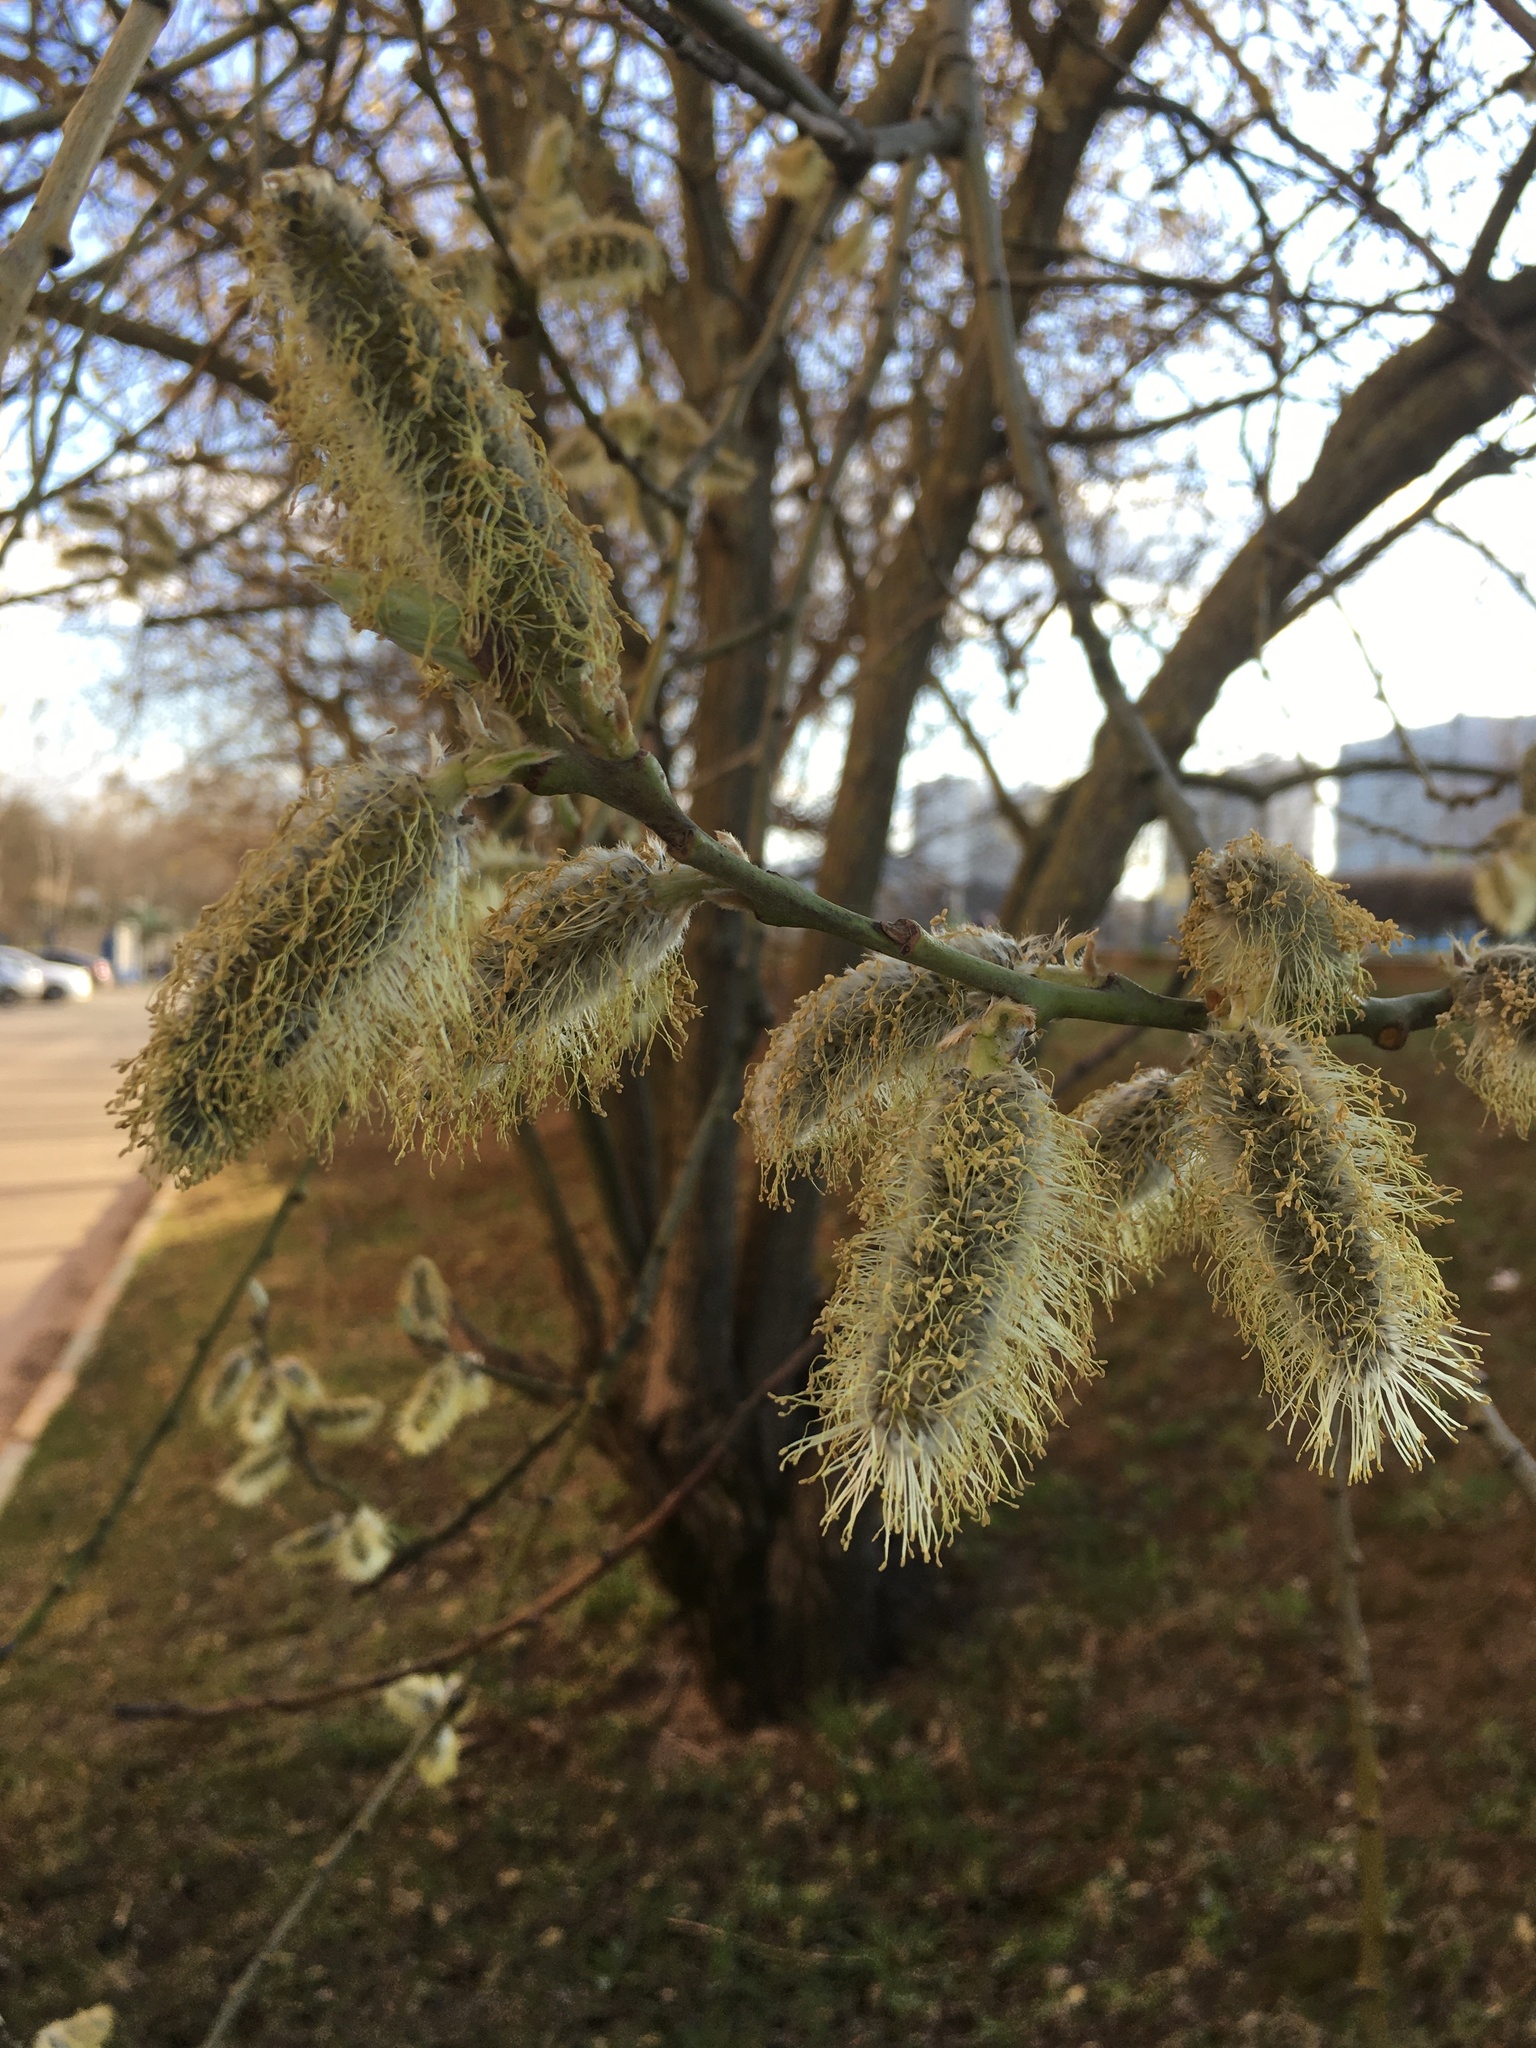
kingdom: Plantae
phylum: Tracheophyta
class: Magnoliopsida
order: Malpighiales
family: Salicaceae
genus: Salix
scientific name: Salix caprea
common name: Goat willow
